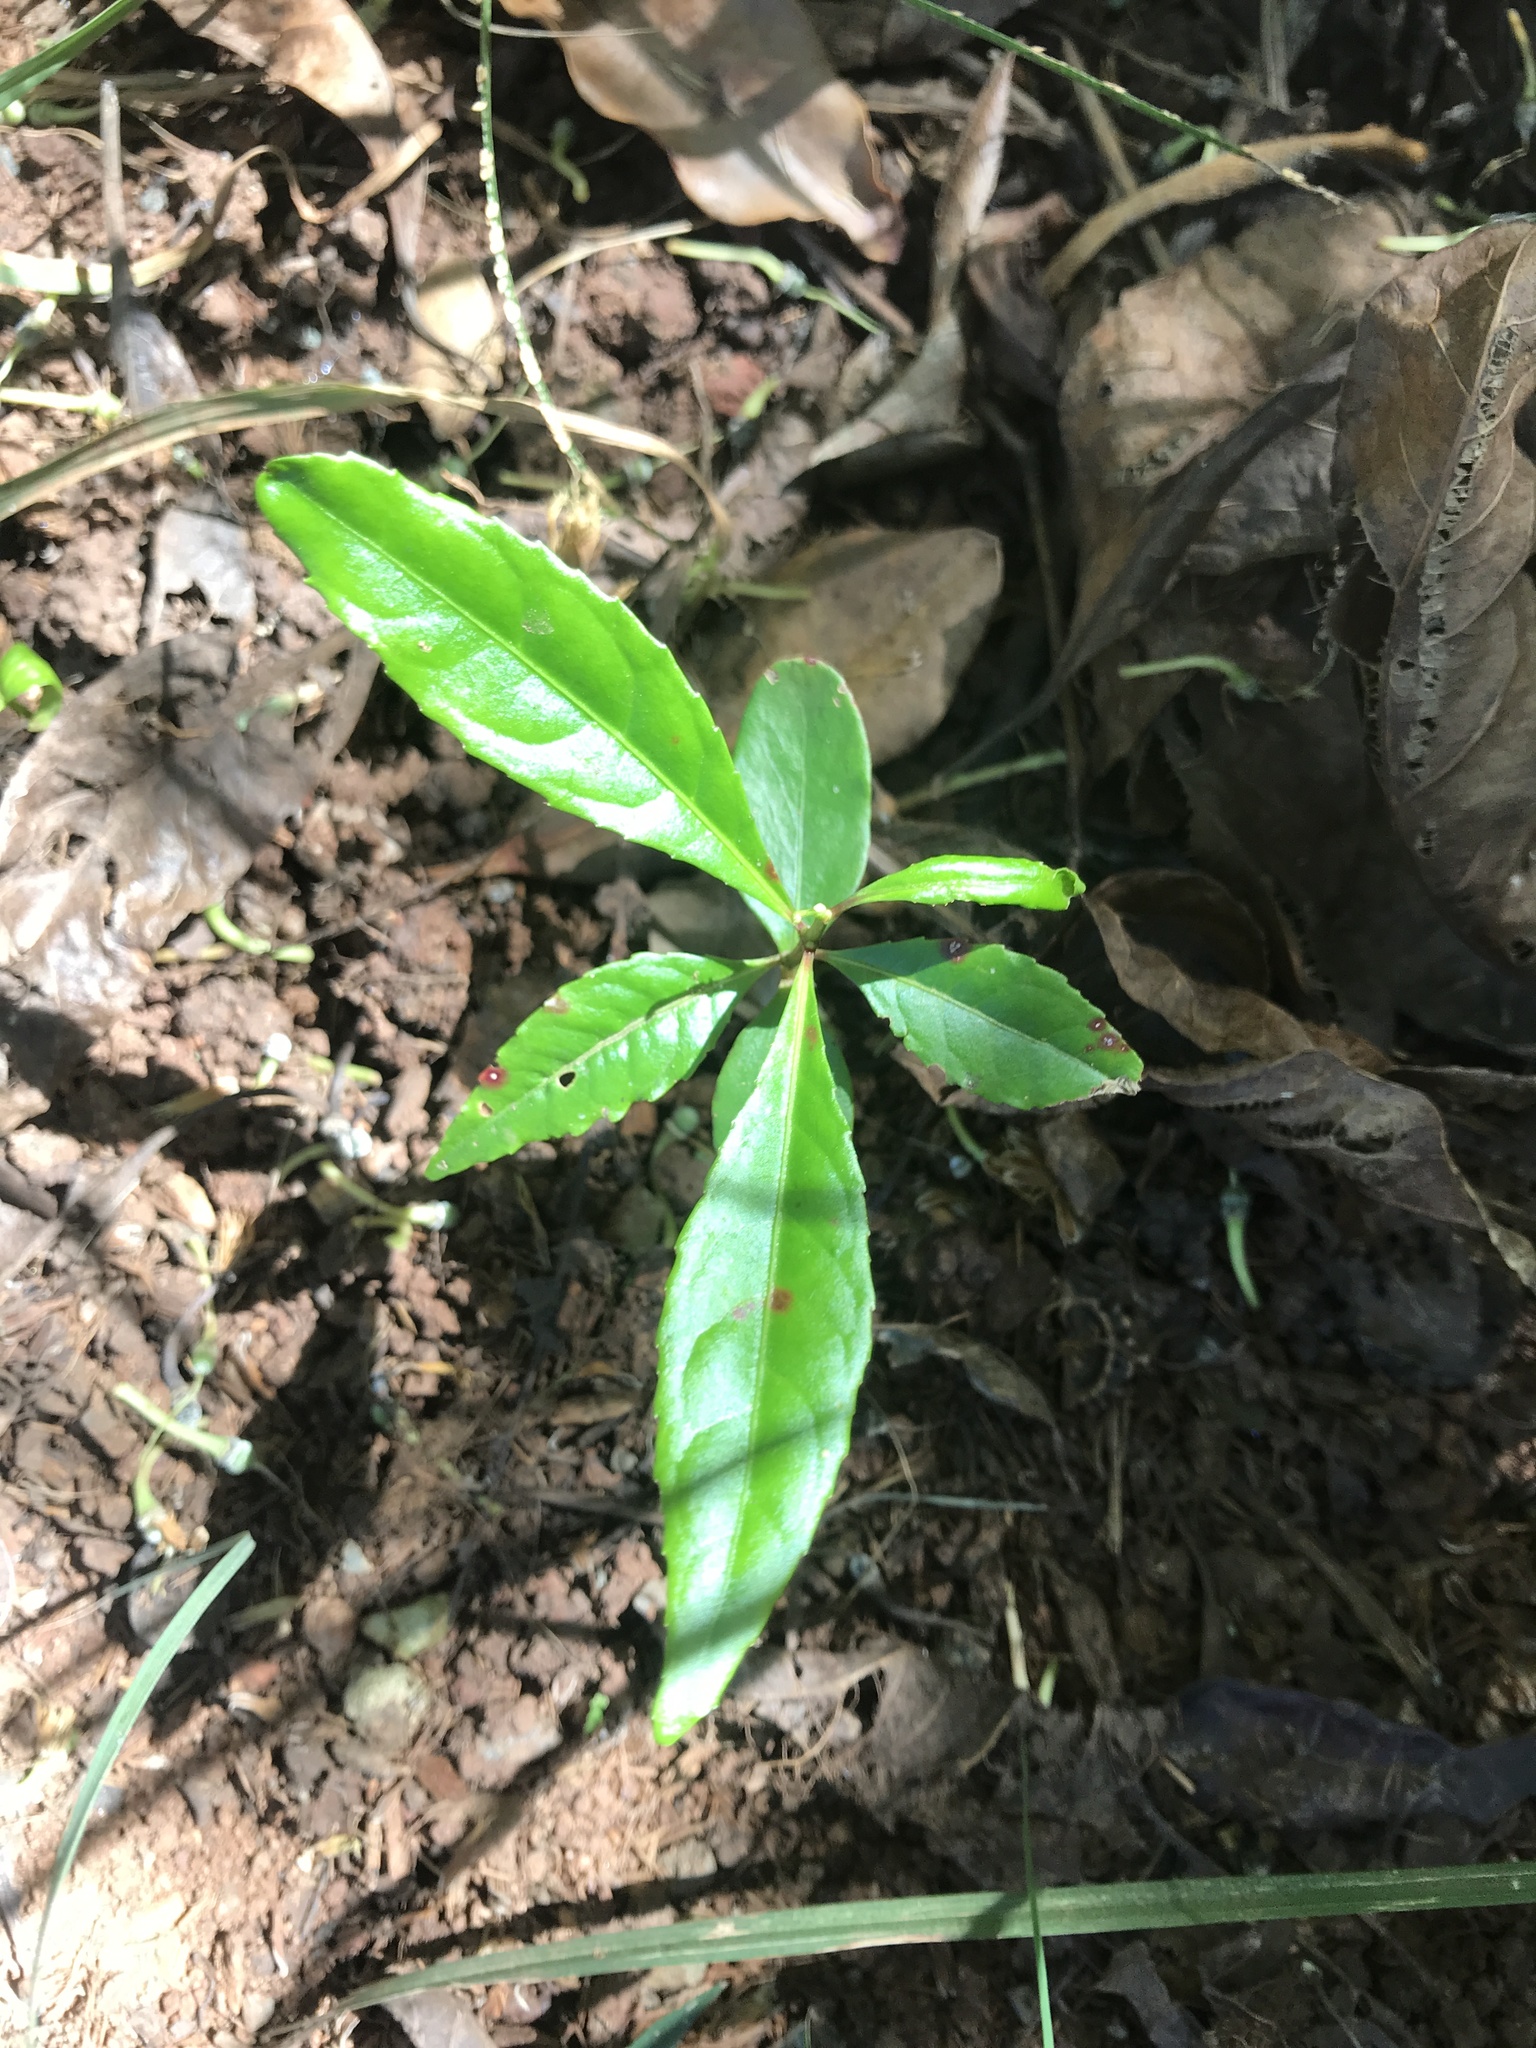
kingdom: Plantae
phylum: Tracheophyta
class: Magnoliopsida
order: Oxalidales
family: Elaeocarpaceae
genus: Elaeocarpus
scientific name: Elaeocarpus angustifolius
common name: Blue marble tree
